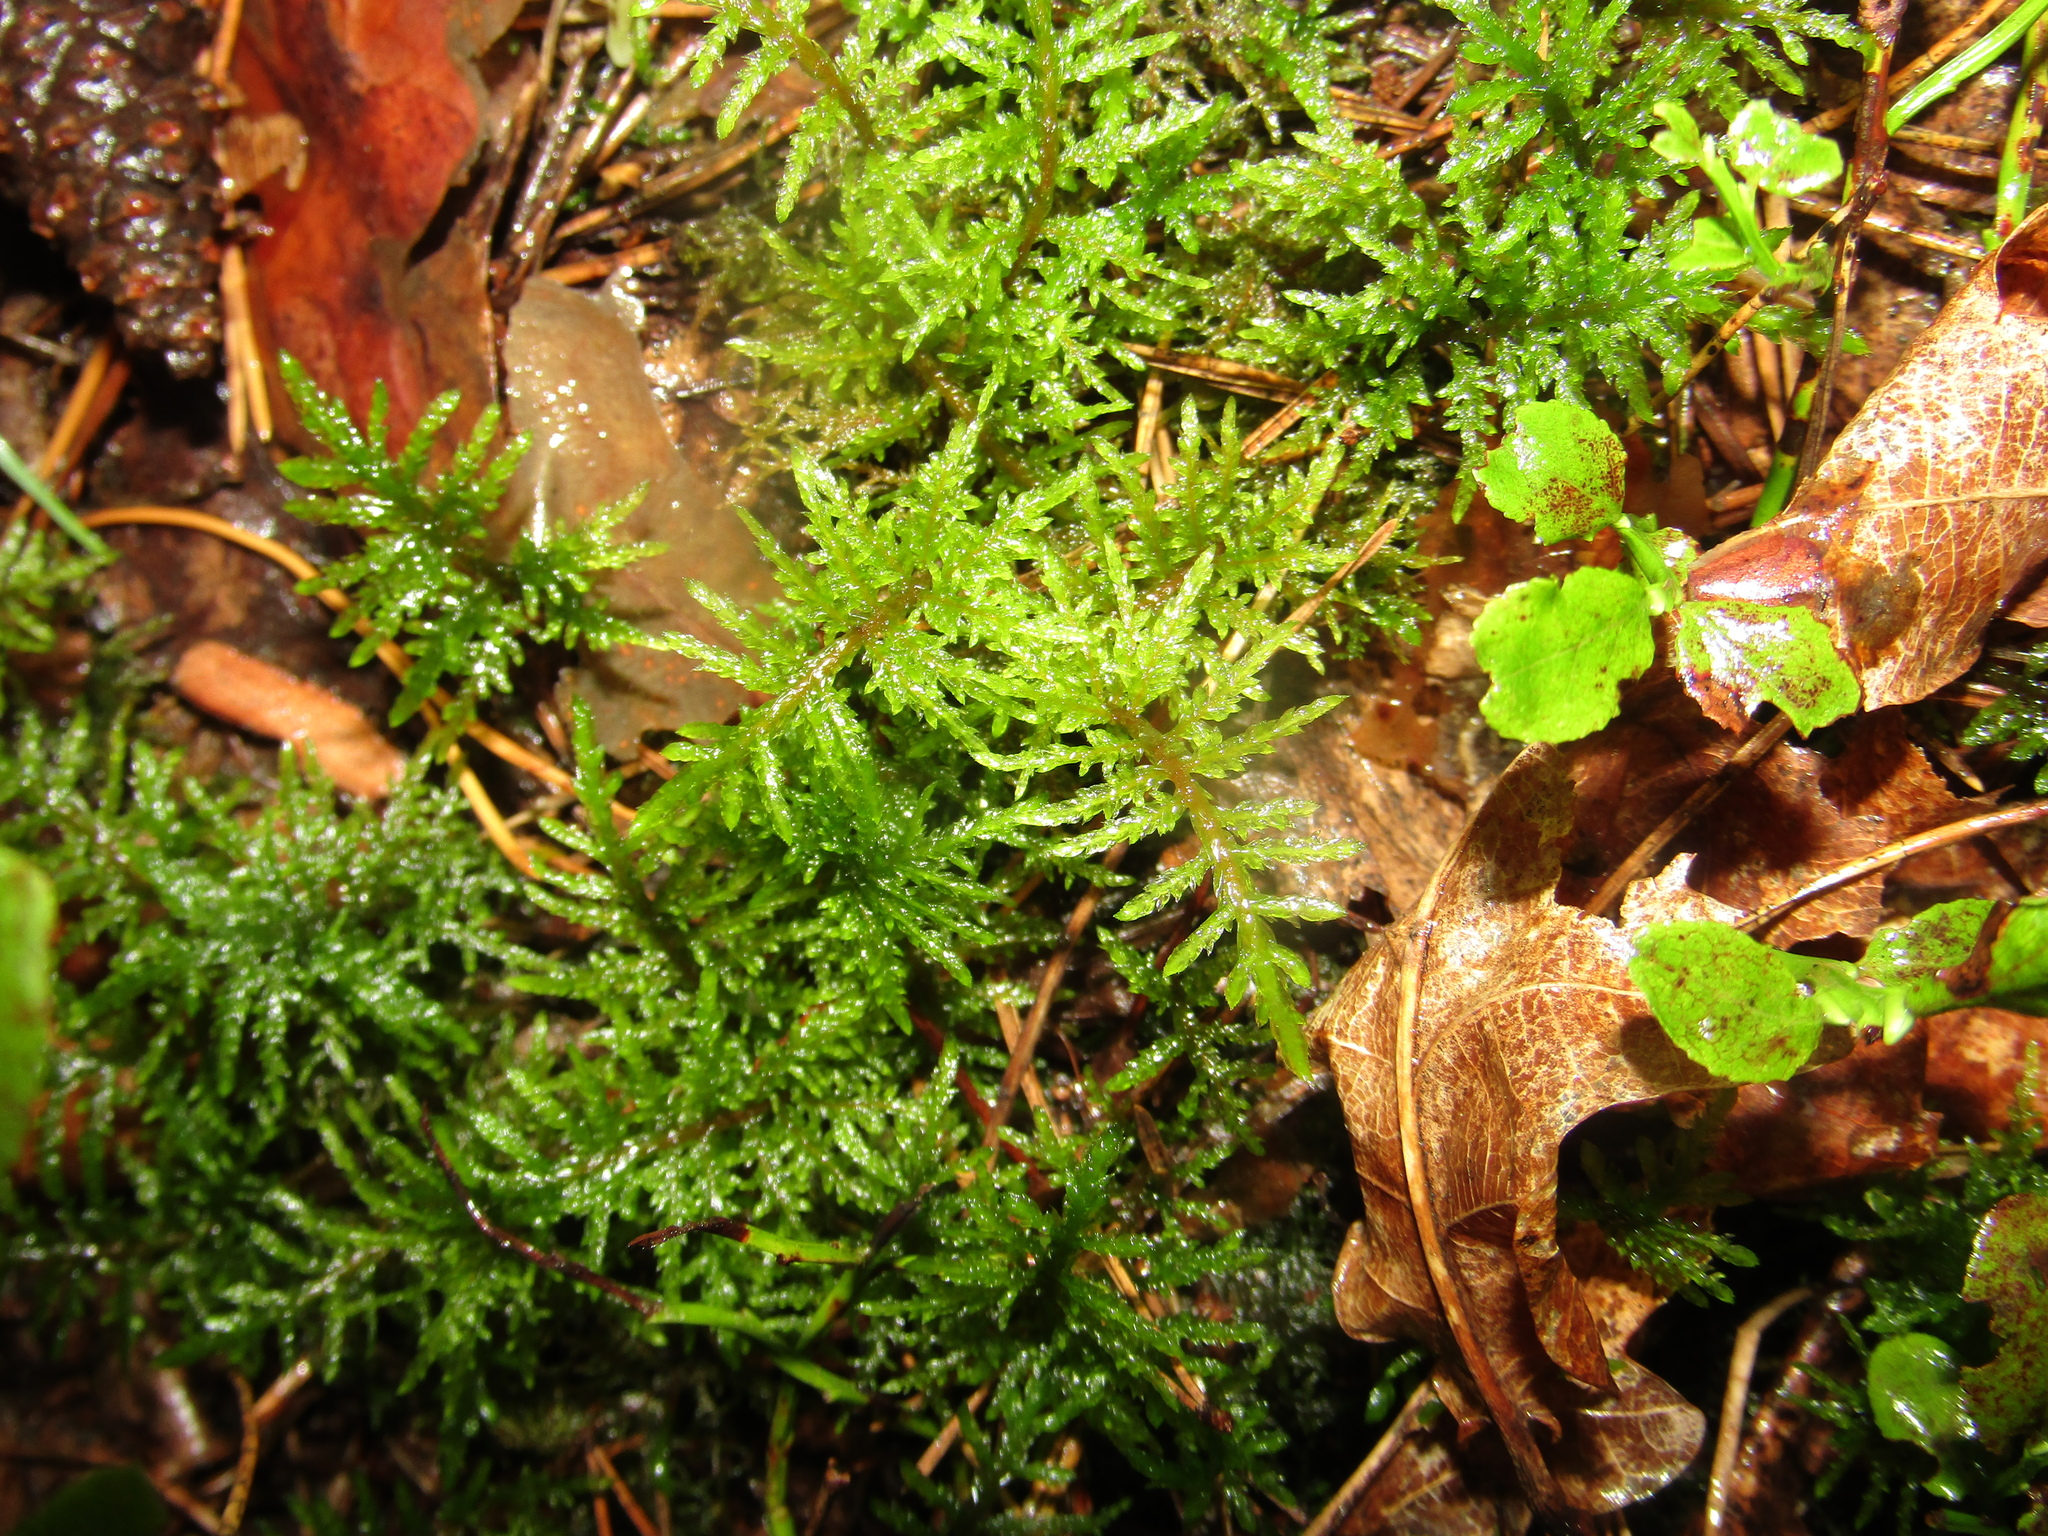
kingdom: Plantae
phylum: Bryophyta
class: Bryopsida
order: Hypnales
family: Hylocomiaceae
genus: Hylocomium
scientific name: Hylocomium splendens
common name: Stairstep moss
